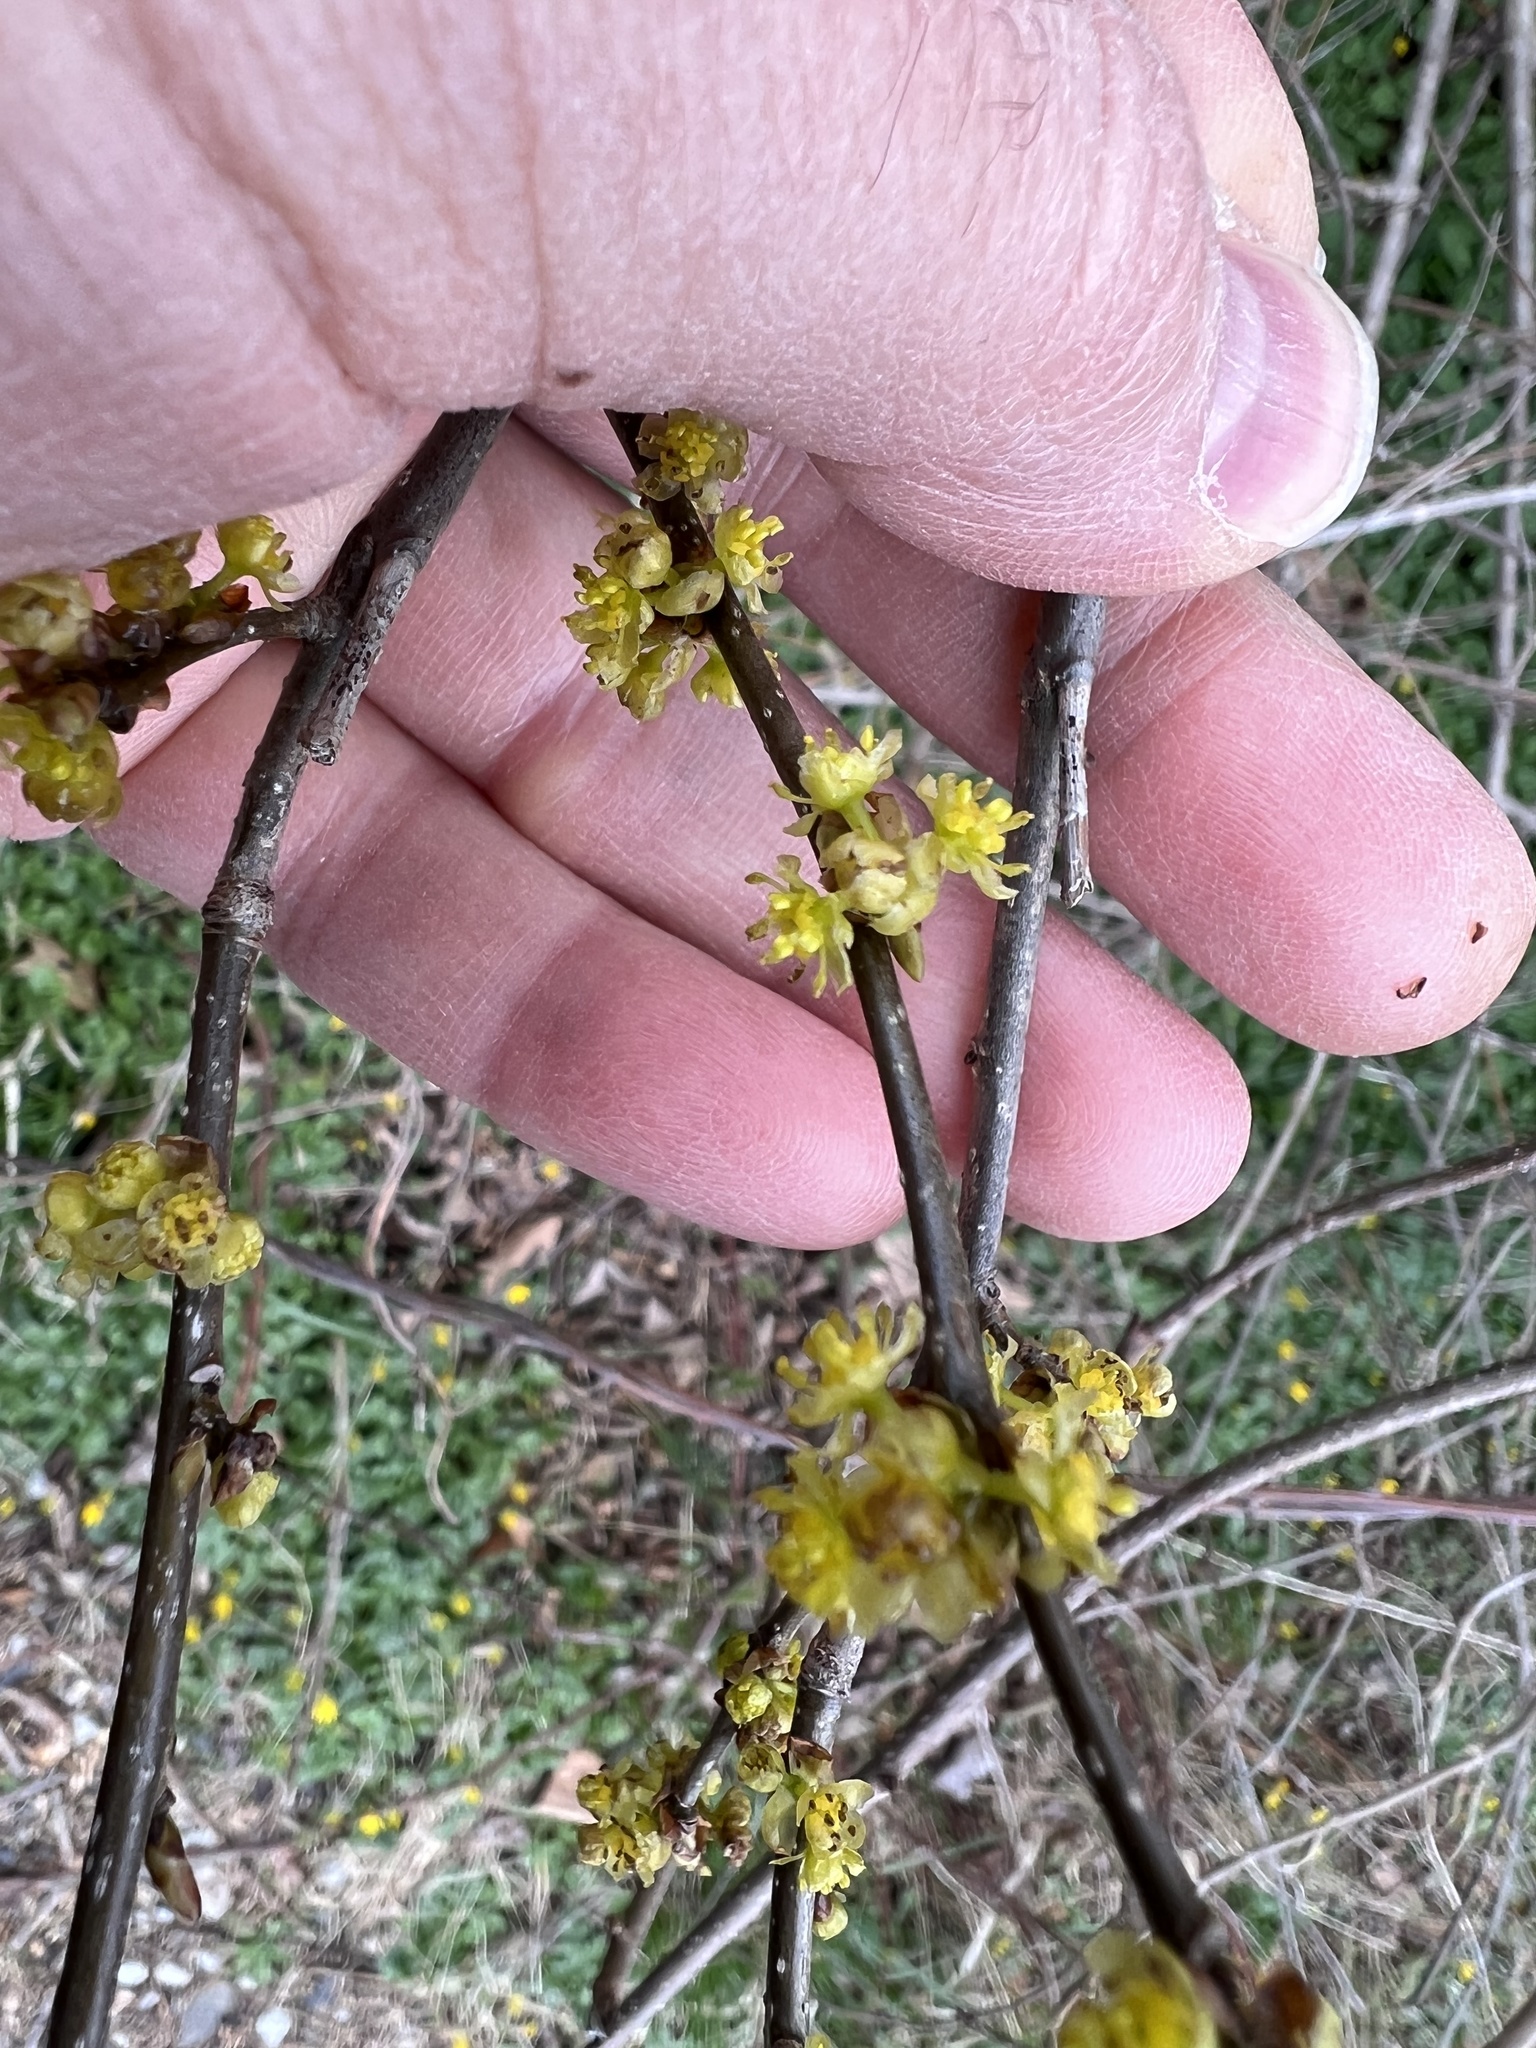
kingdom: Plantae
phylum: Tracheophyta
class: Magnoliopsida
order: Laurales
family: Lauraceae
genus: Lindera
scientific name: Lindera benzoin
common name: Spicebush
